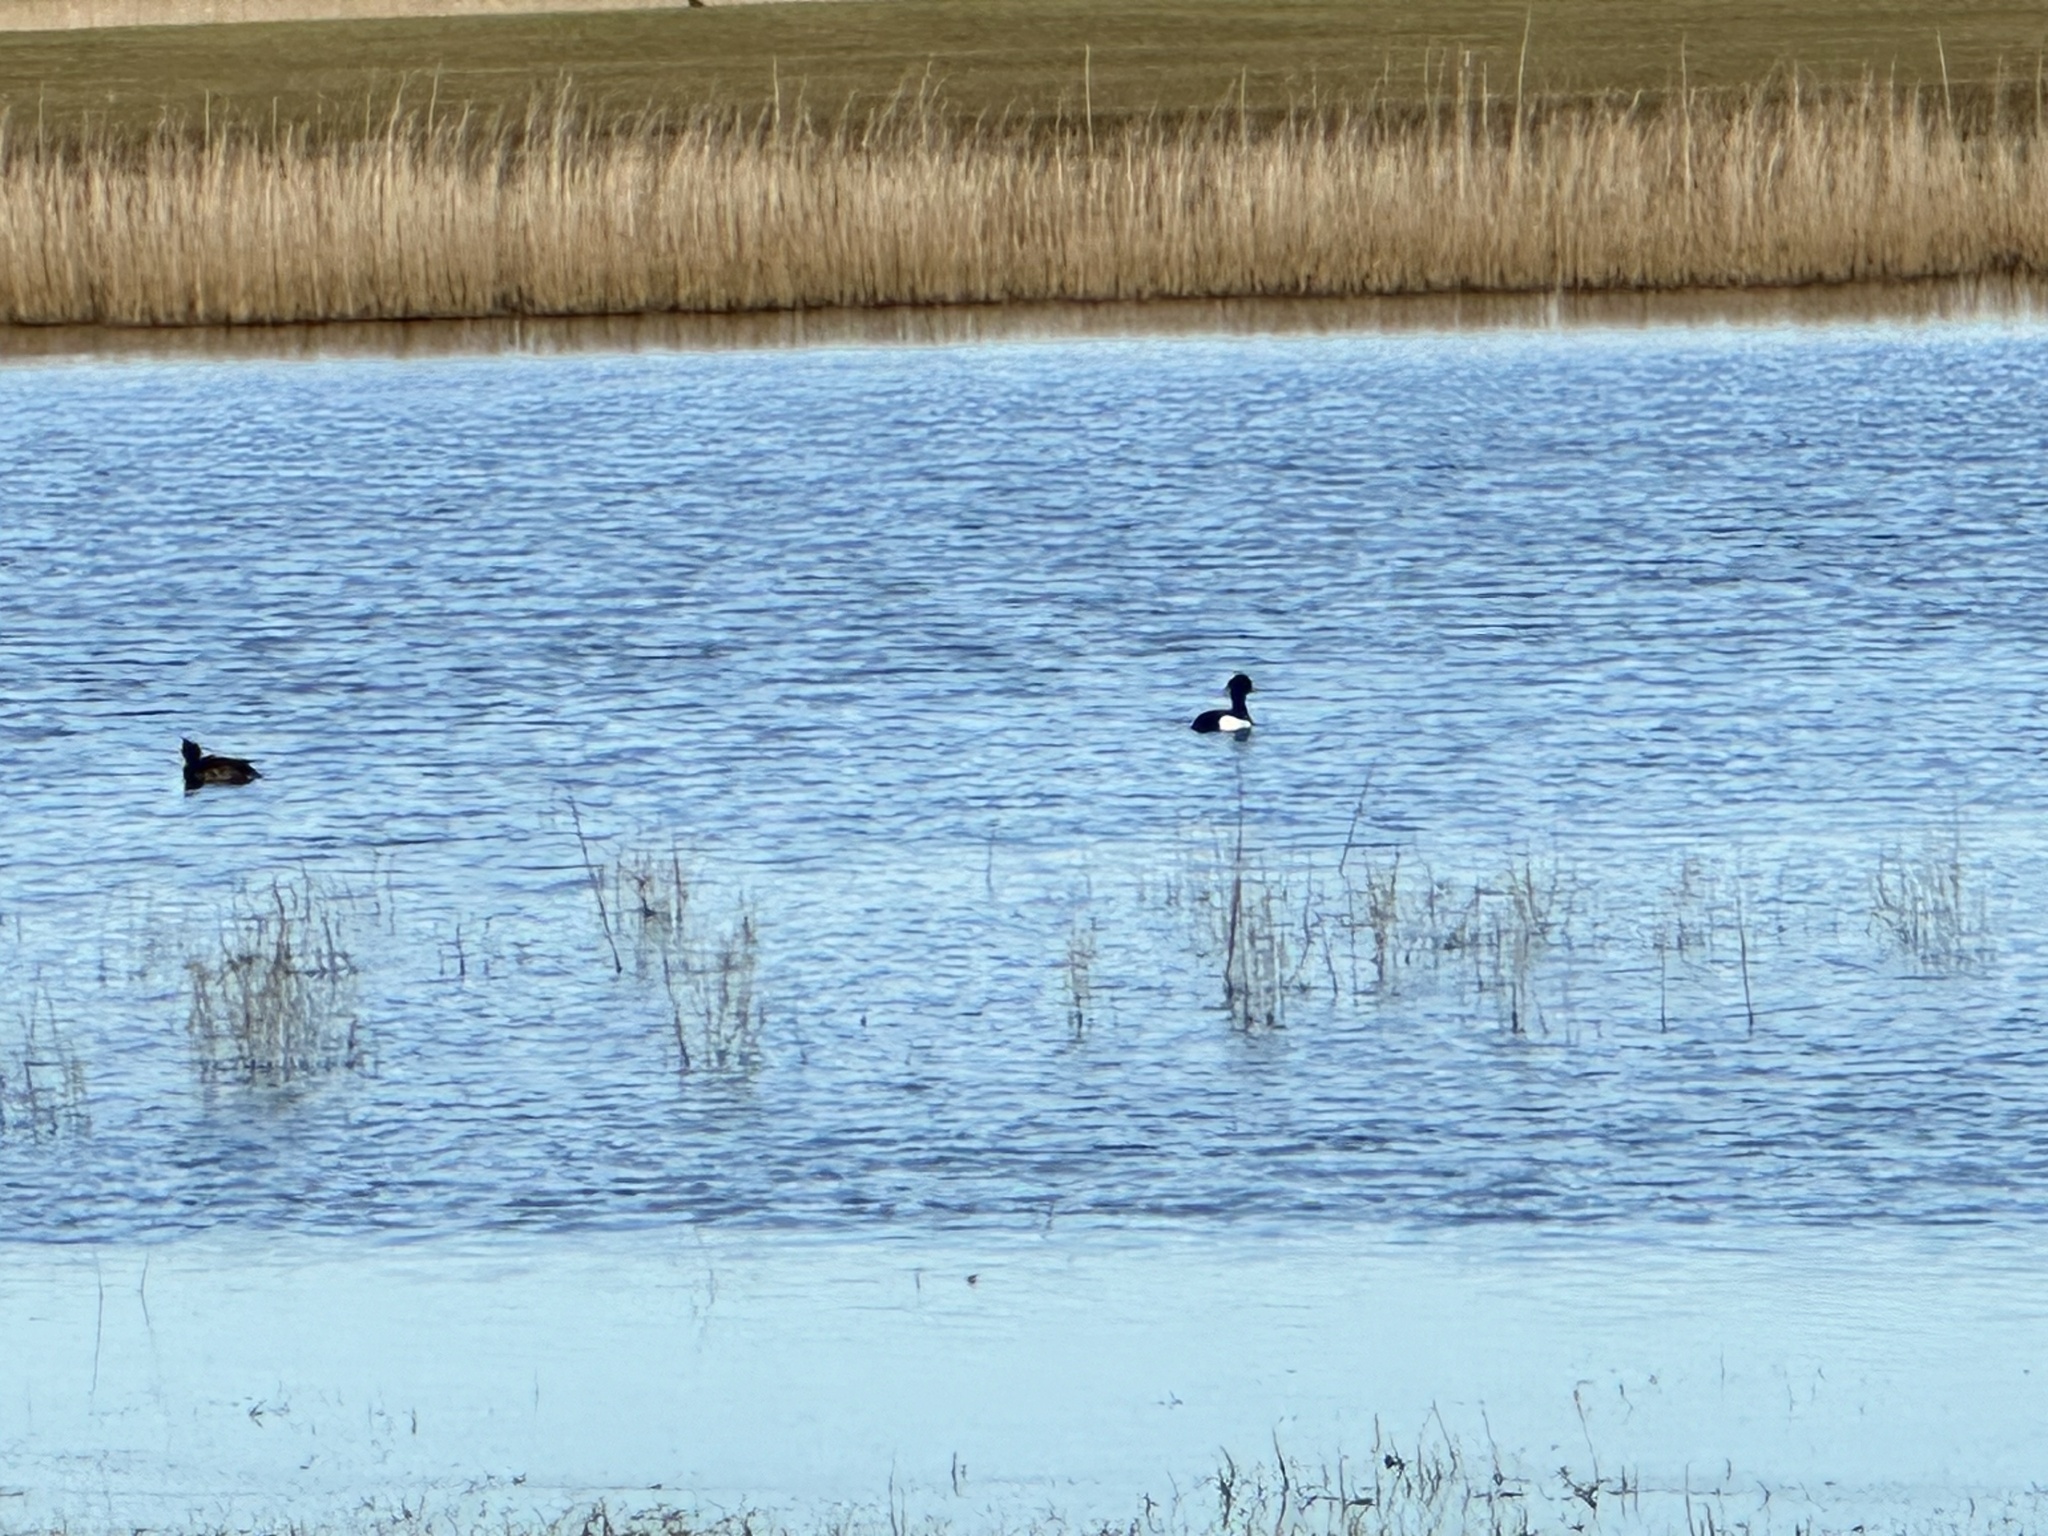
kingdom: Animalia
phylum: Chordata
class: Aves
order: Anseriformes
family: Anatidae
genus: Aythya
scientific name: Aythya fuligula
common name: Tufted duck
